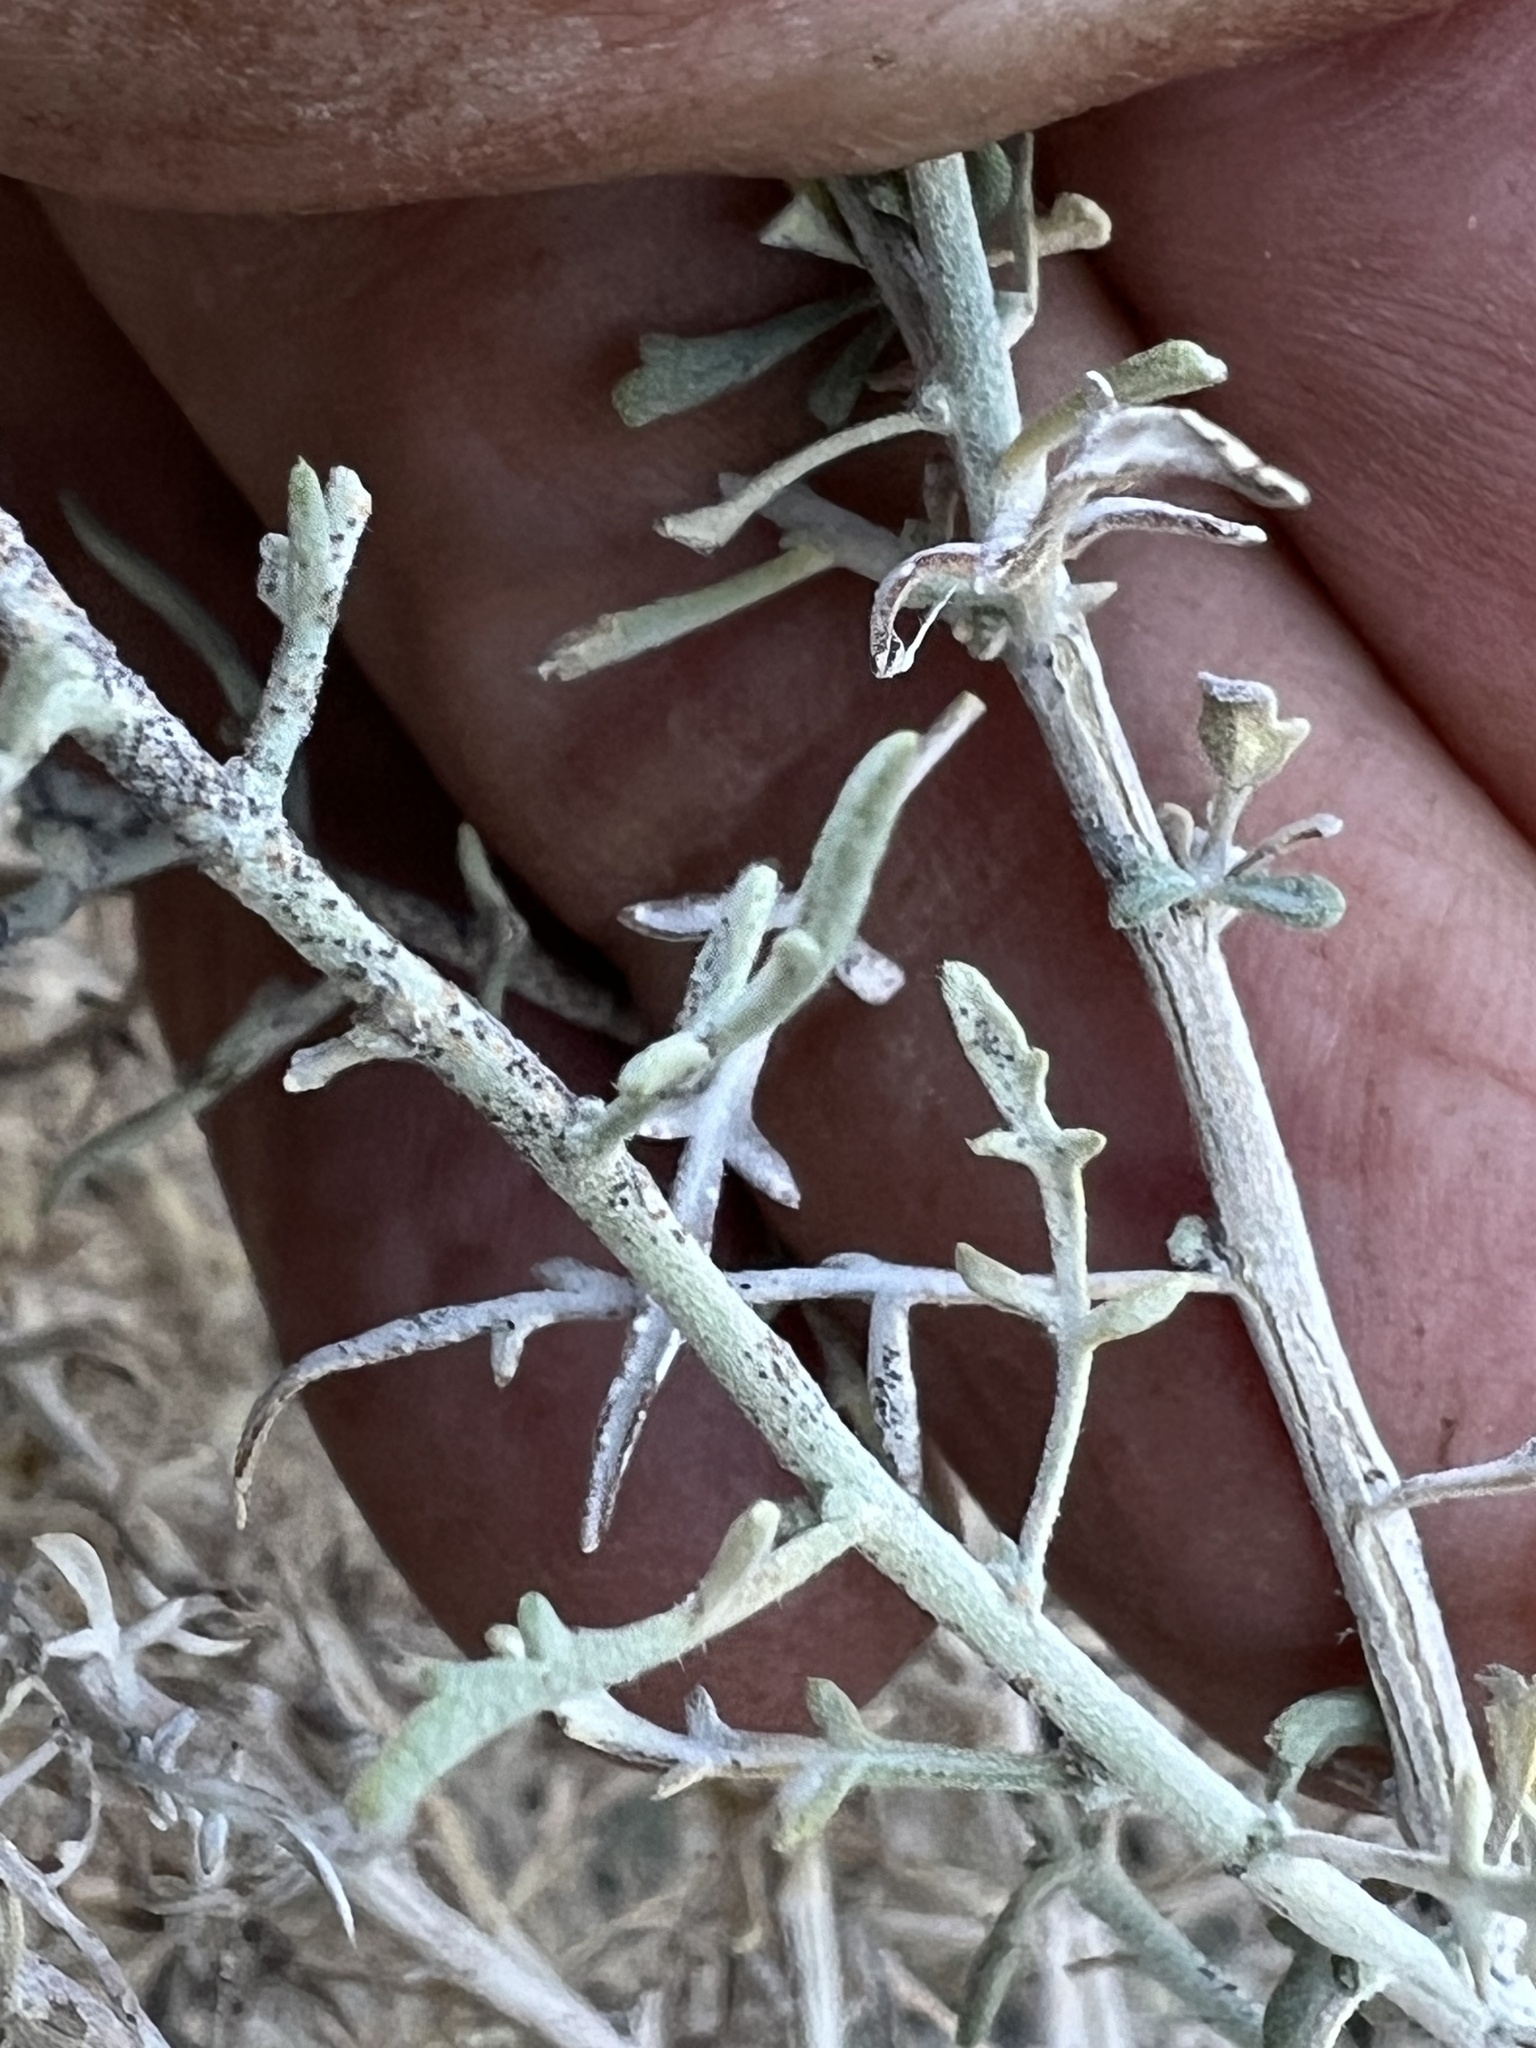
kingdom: Plantae
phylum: Tracheophyta
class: Magnoliopsida
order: Asterales
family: Asteraceae
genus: Ambrosia
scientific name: Ambrosia platyspina
